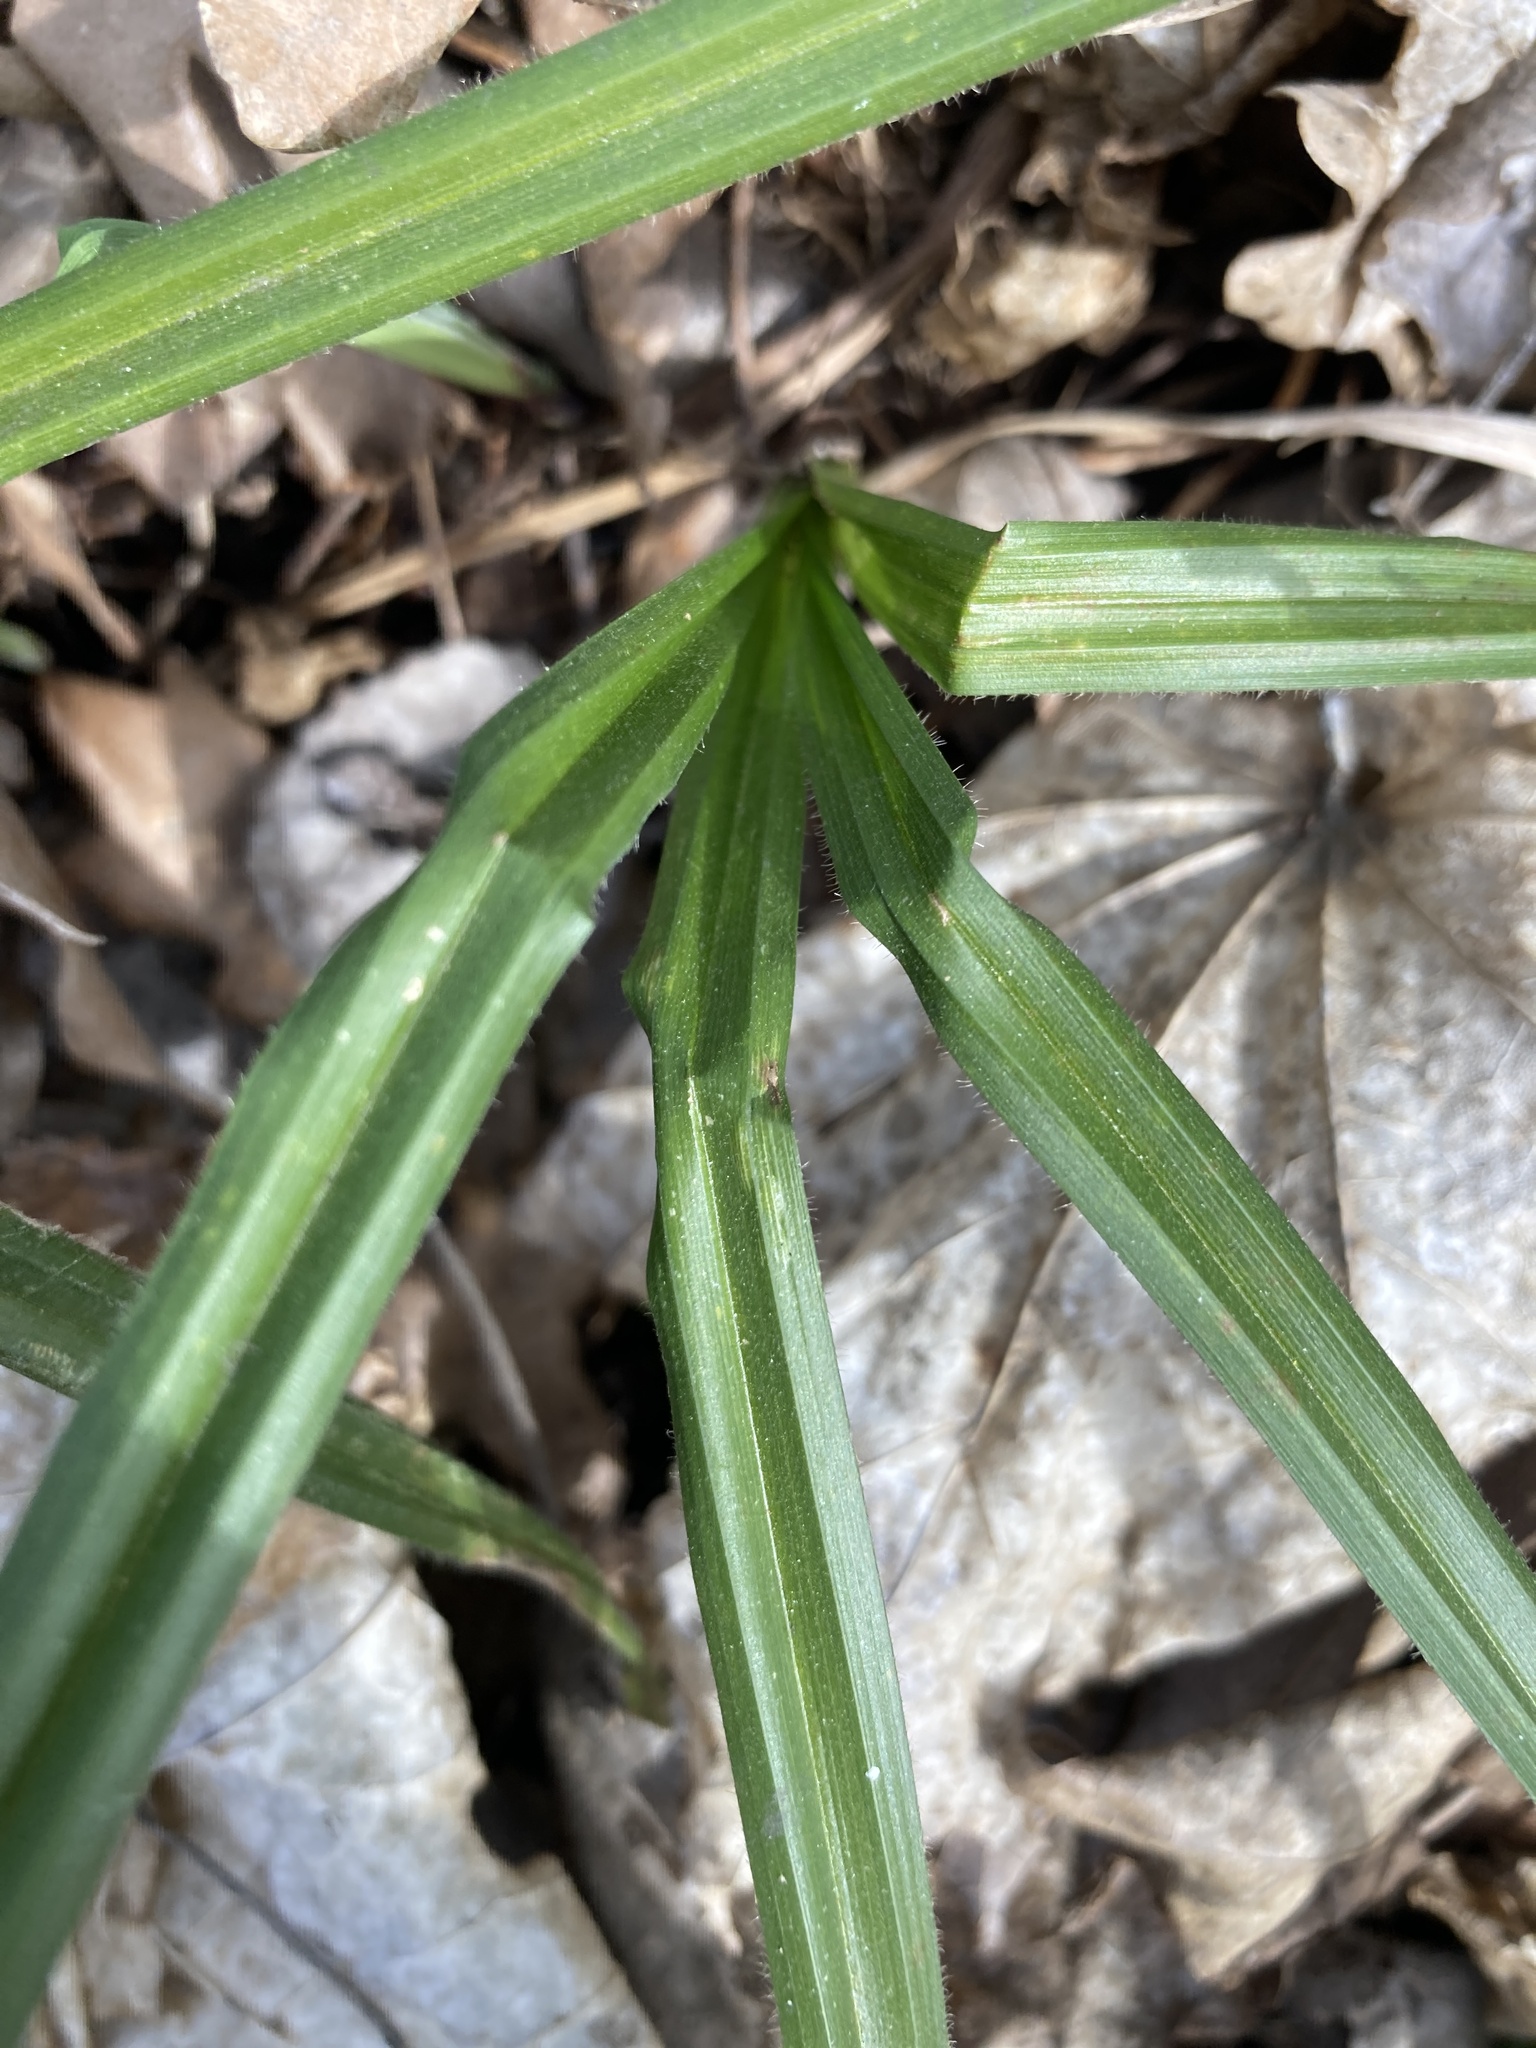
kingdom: Plantae
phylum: Tracheophyta
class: Liliopsida
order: Poales
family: Cyperaceae
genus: Carex
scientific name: Carex pilosa
